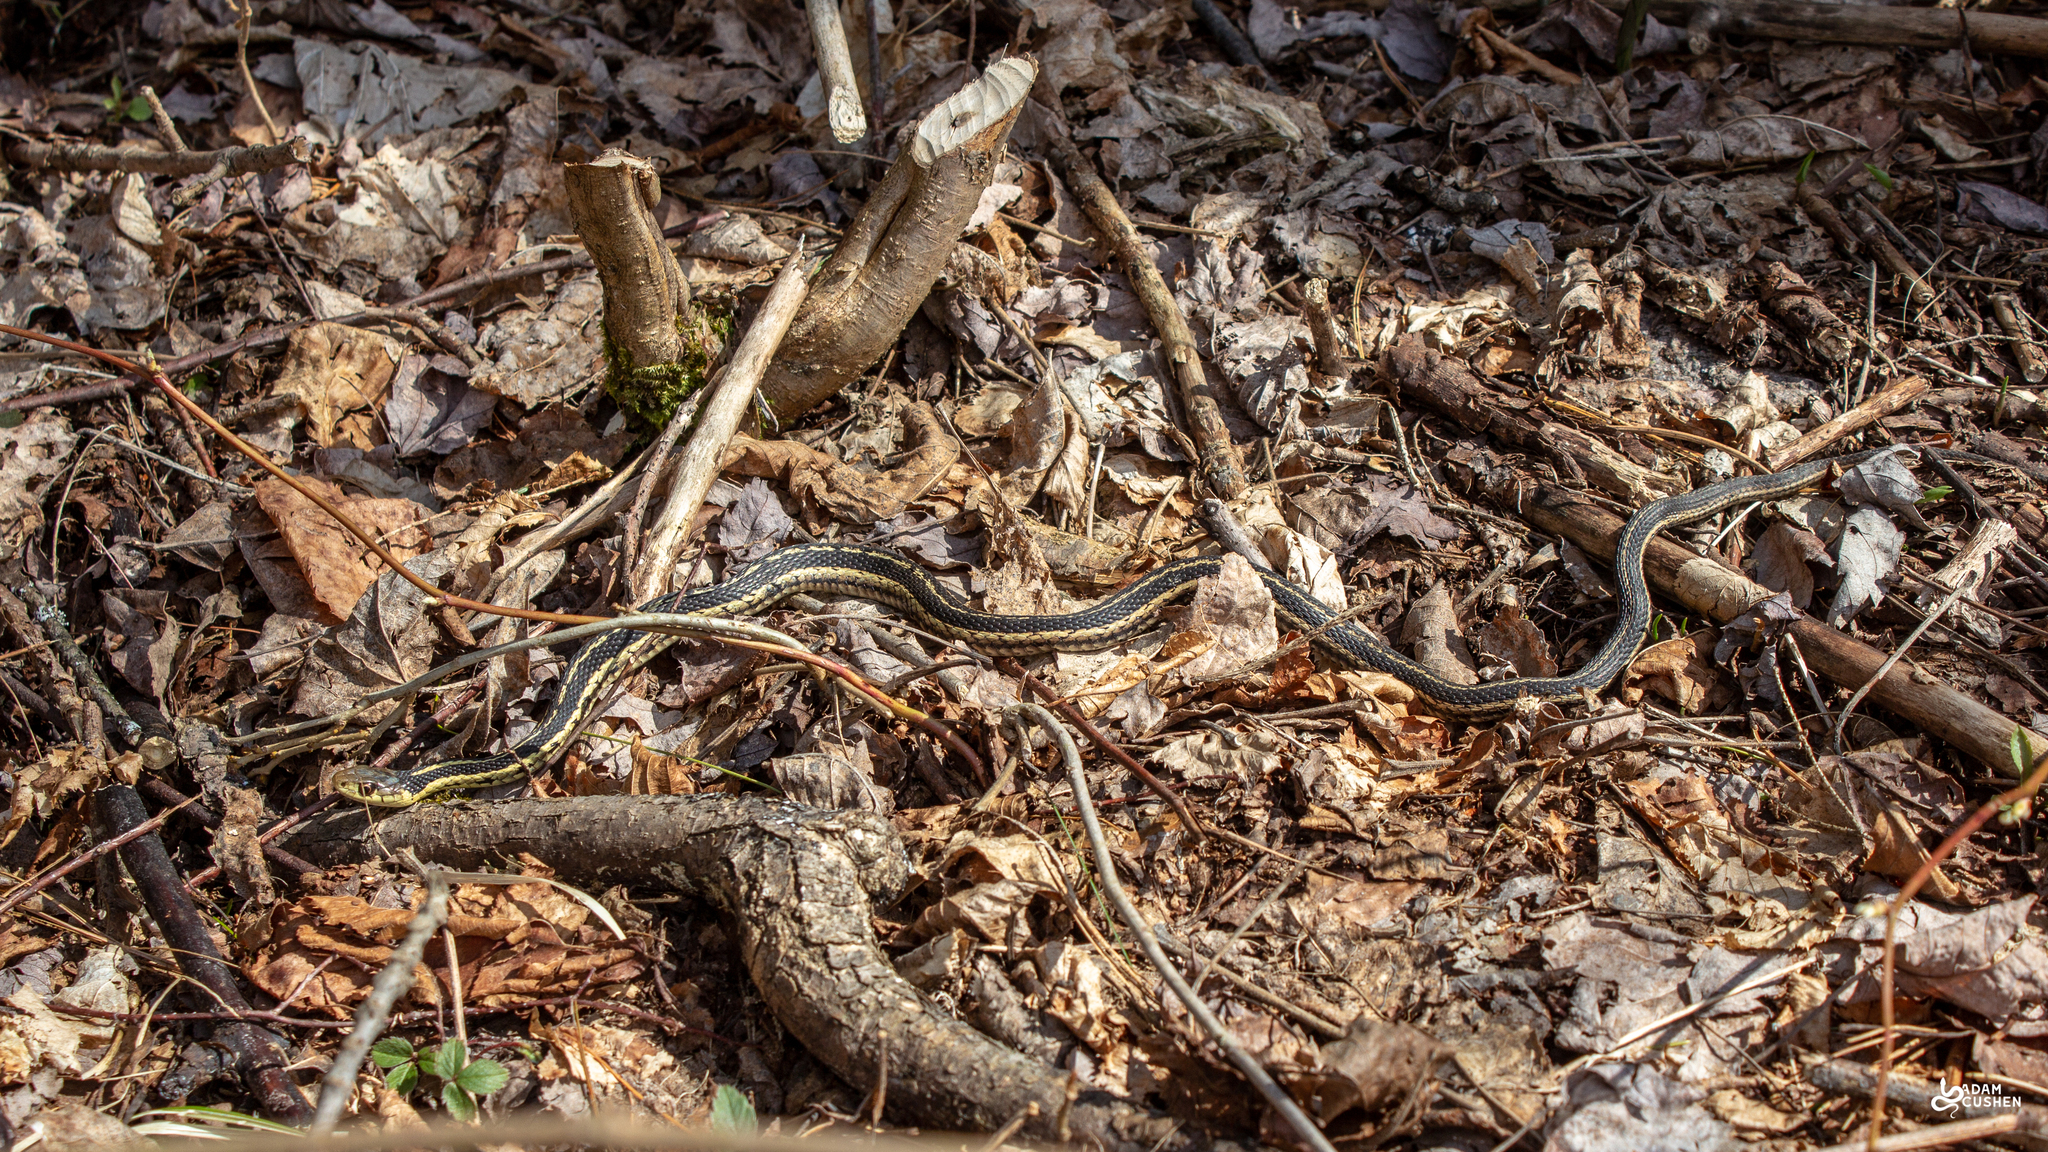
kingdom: Animalia
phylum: Chordata
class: Squamata
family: Colubridae
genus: Thamnophis
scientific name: Thamnophis sirtalis
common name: Common garter snake
